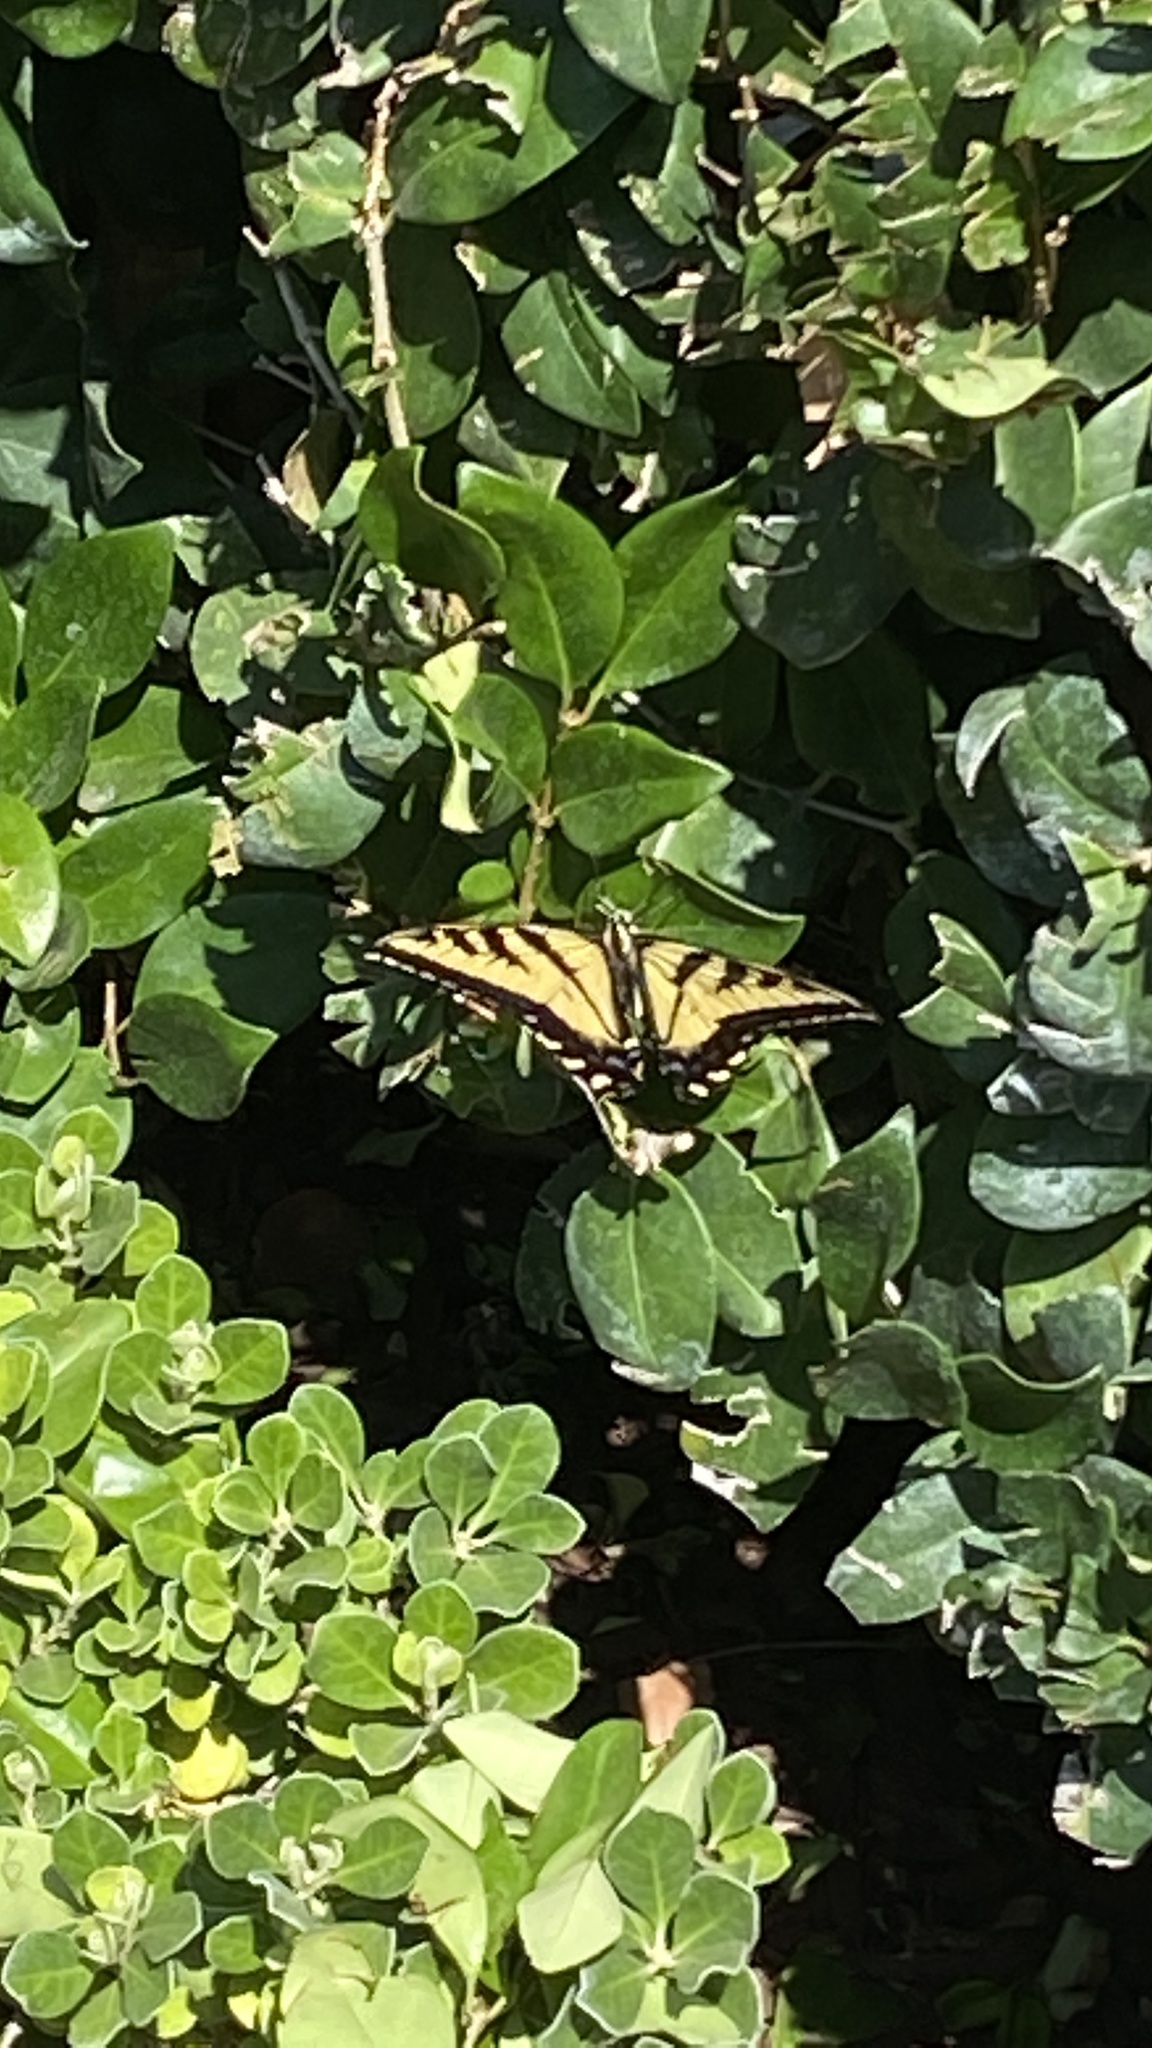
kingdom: Animalia
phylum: Arthropoda
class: Insecta
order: Lepidoptera
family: Papilionidae
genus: Papilio
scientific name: Papilio rutulus
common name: Western tiger swallowtail
